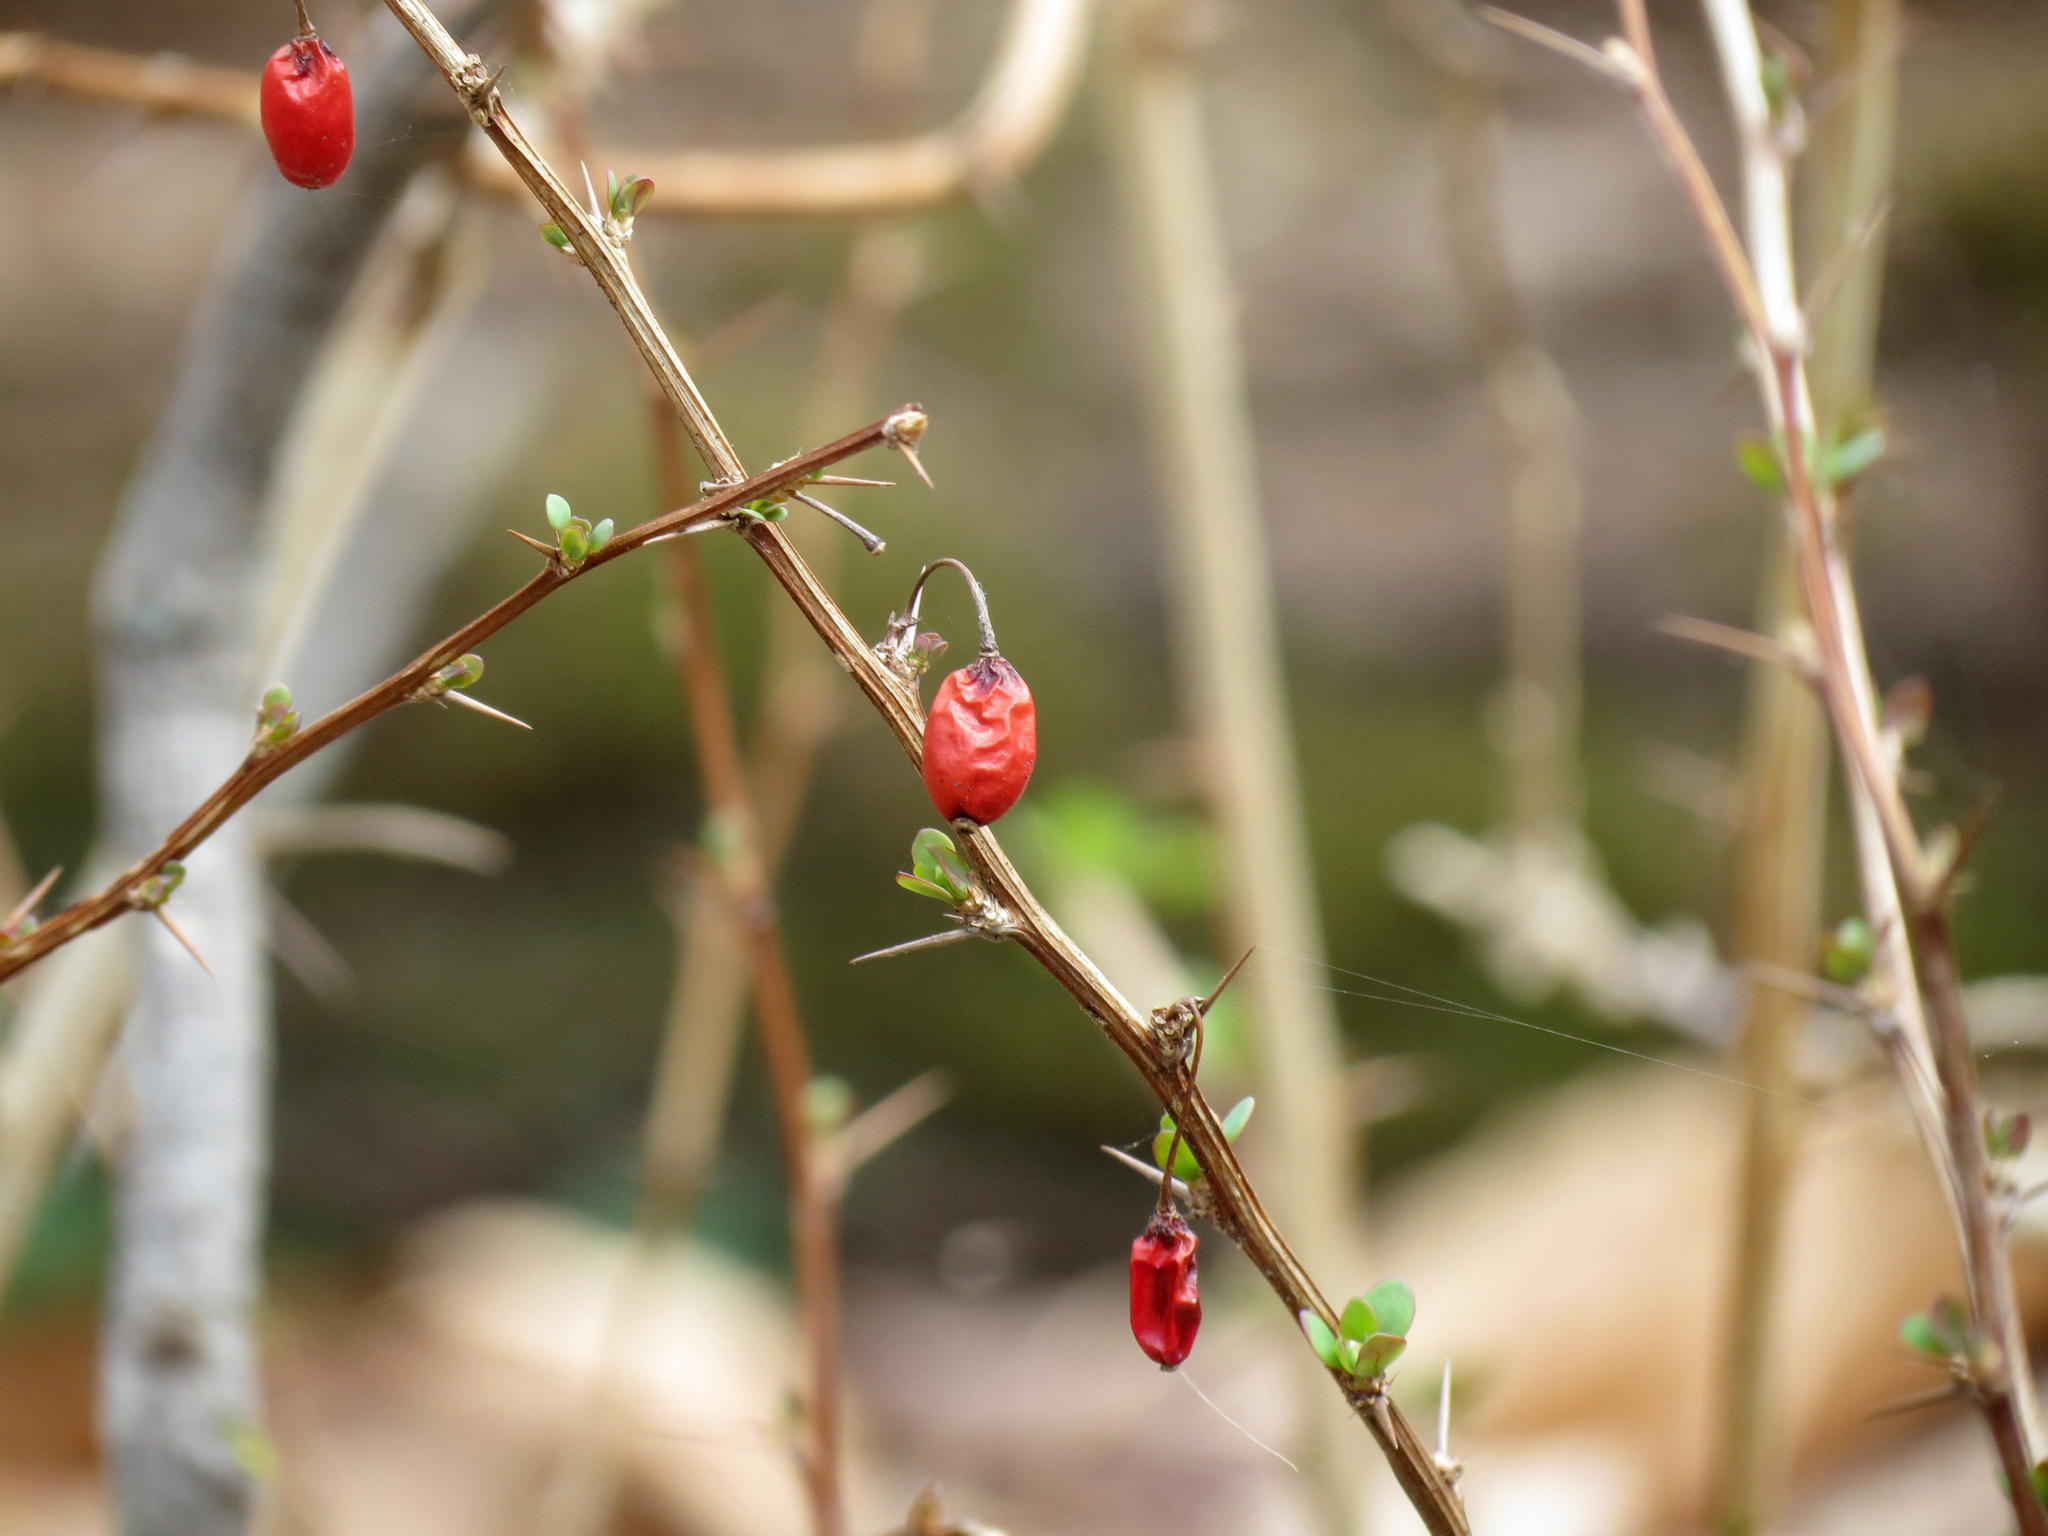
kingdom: Plantae
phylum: Tracheophyta
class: Magnoliopsida
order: Ranunculales
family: Berberidaceae
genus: Berberis
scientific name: Berberis thunbergii
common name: Japanese barberry
